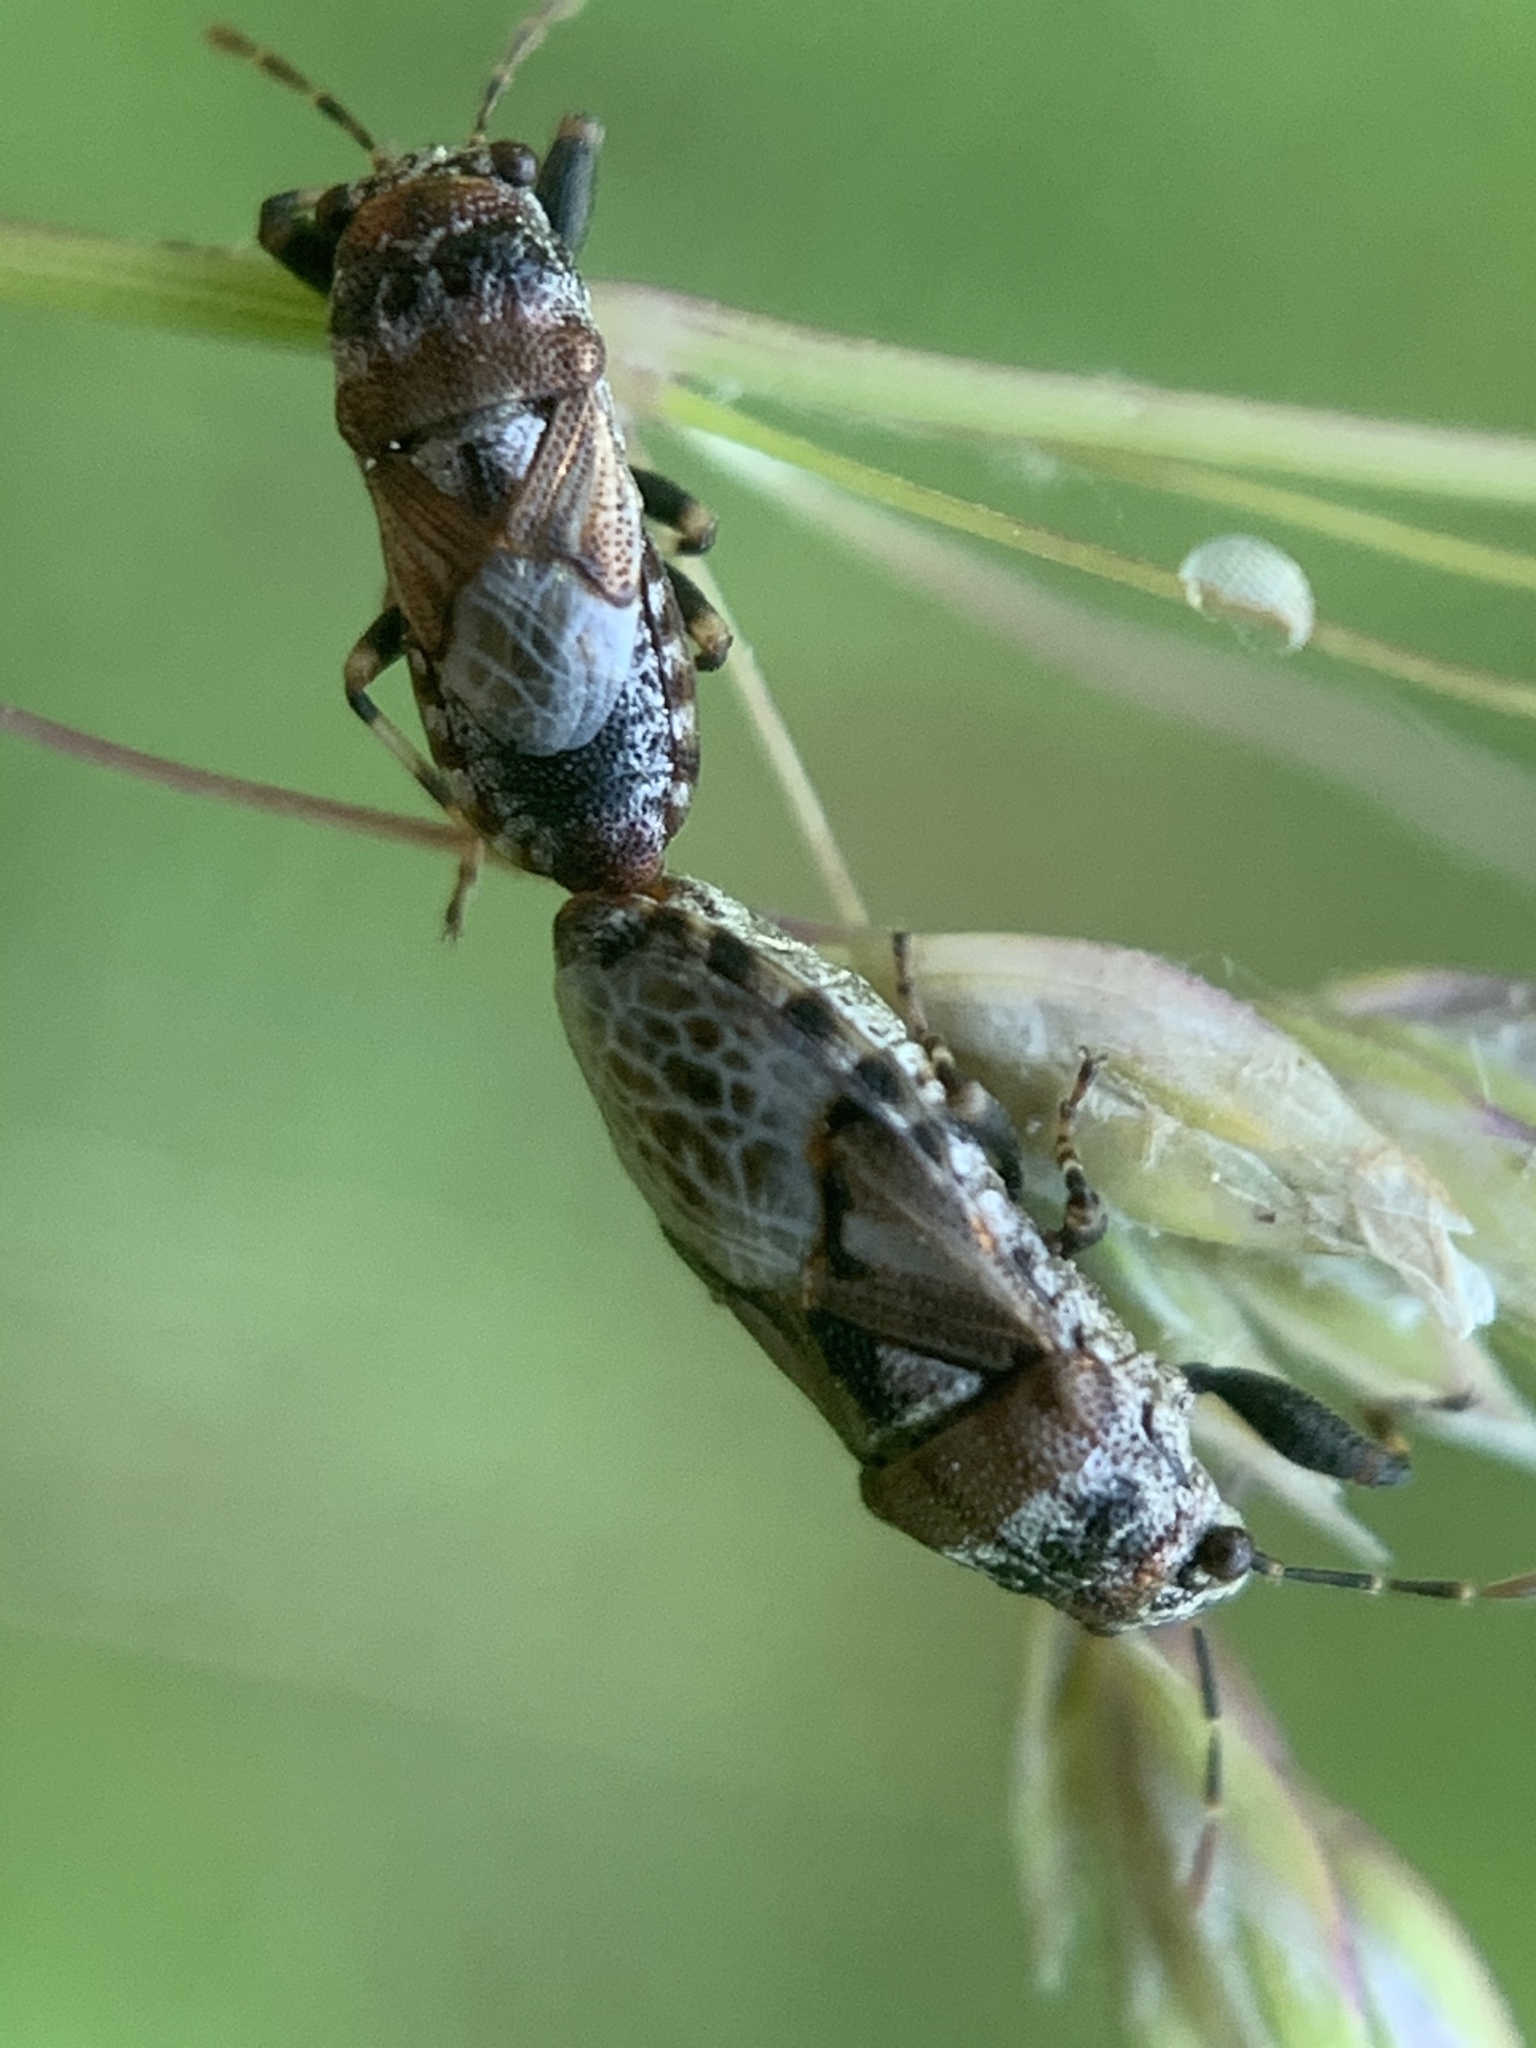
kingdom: Animalia
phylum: Arthropoda
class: Insecta
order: Hemiptera
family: Pachygronthidae
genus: Phlegyas
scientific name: Phlegyas abbreviatus
